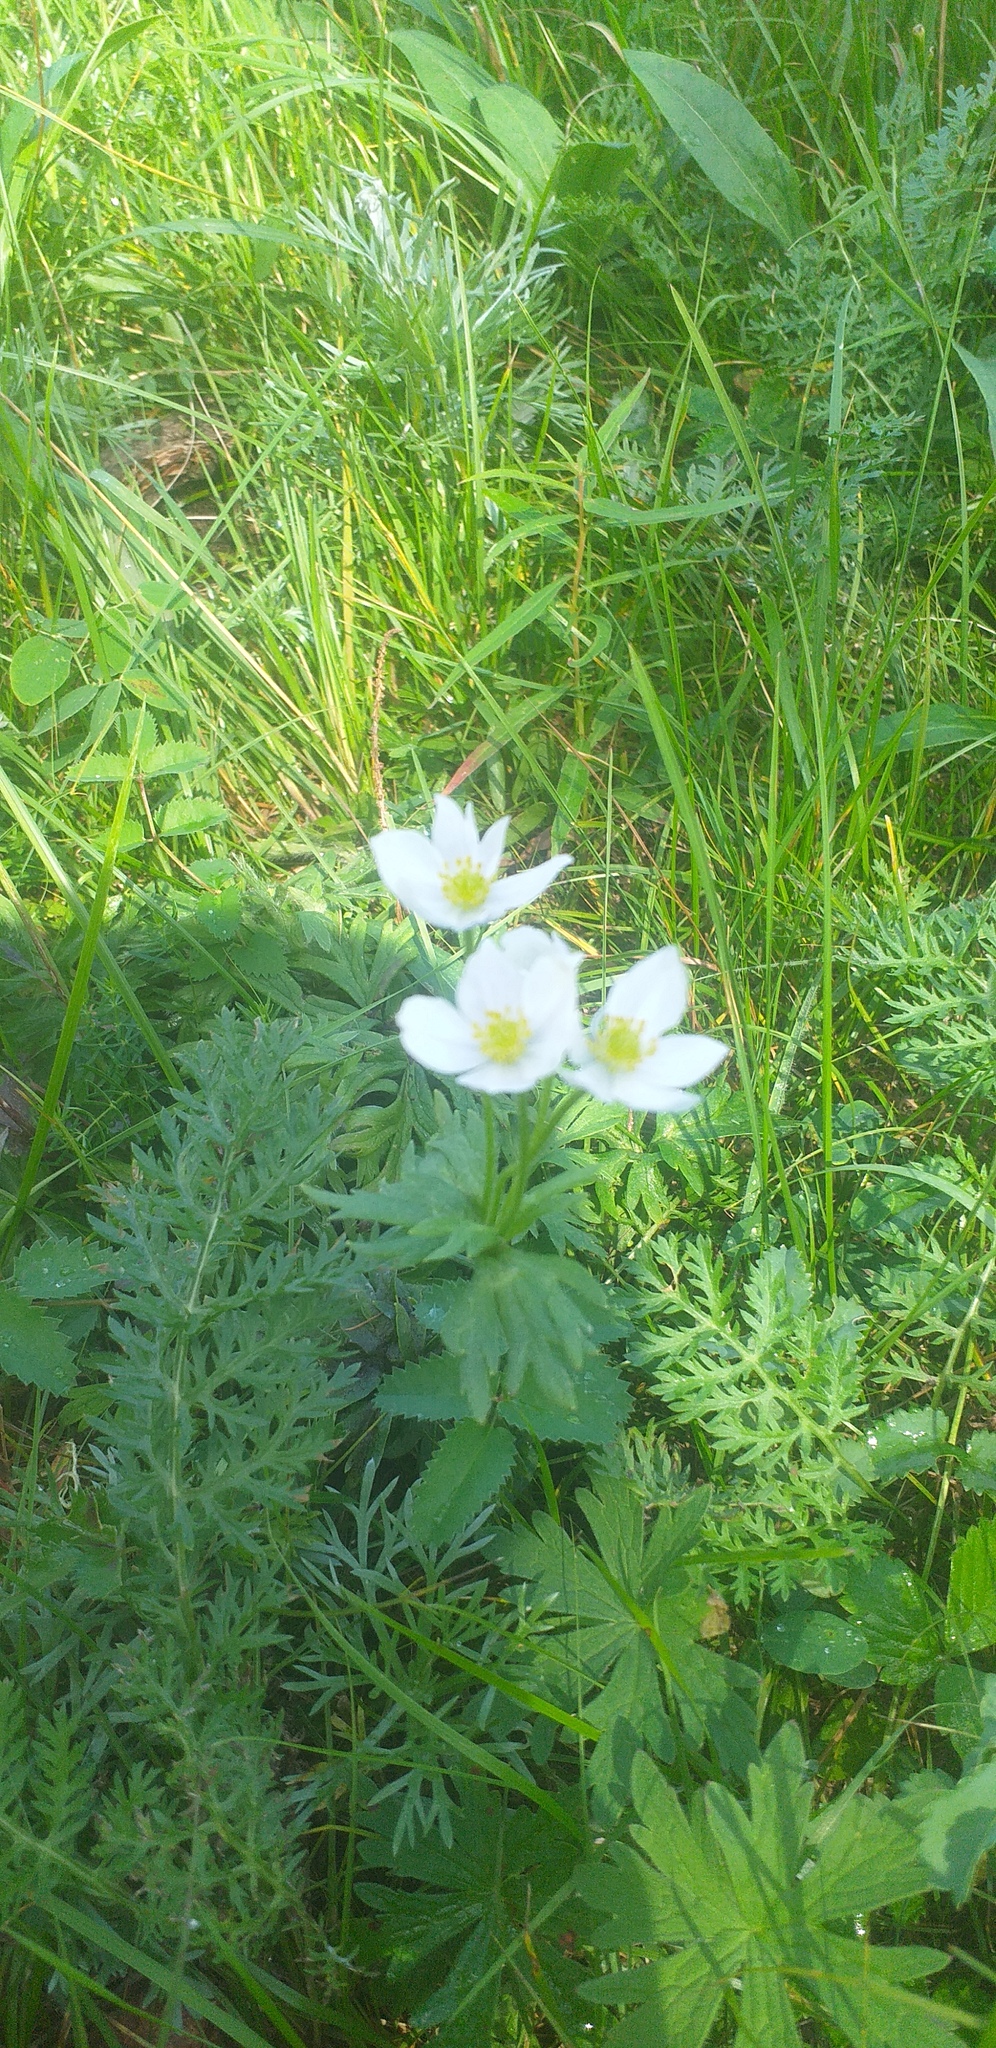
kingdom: Plantae
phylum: Tracheophyta
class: Magnoliopsida
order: Ranunculales
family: Ranunculaceae
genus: Anemonastrum
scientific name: Anemonastrum narcissiflorum
